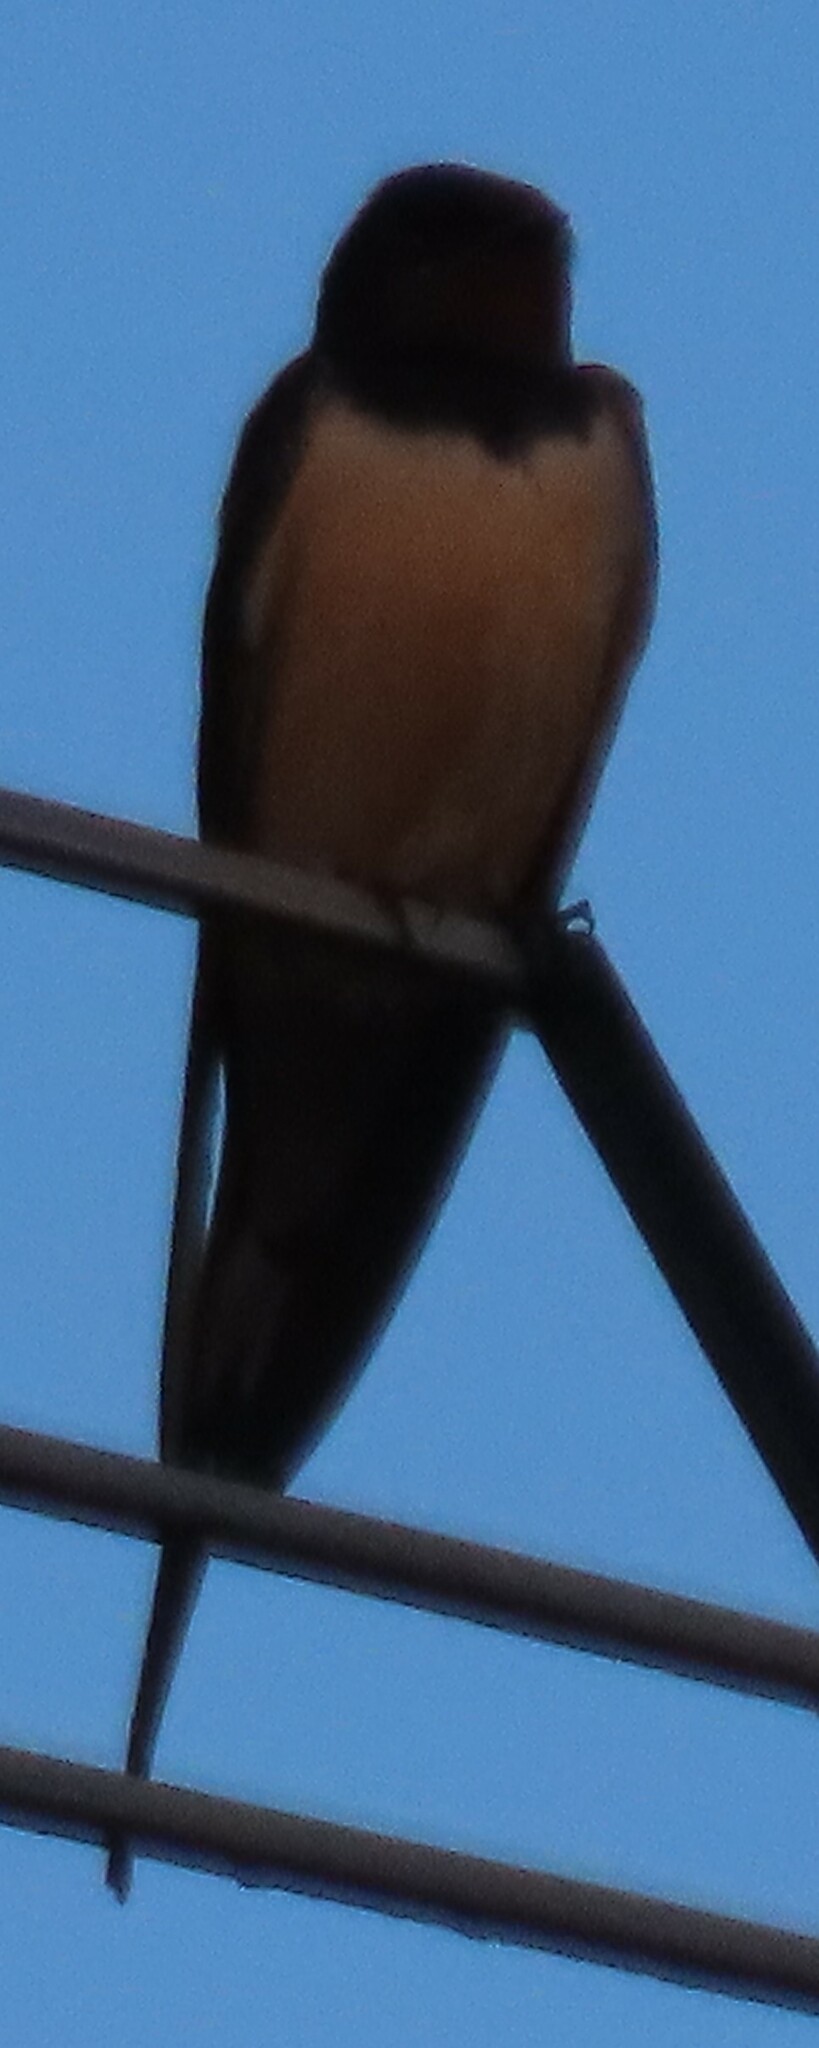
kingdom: Animalia
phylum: Chordata
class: Aves
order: Passeriformes
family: Hirundinidae
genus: Hirundo
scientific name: Hirundo rustica
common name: Barn swallow
